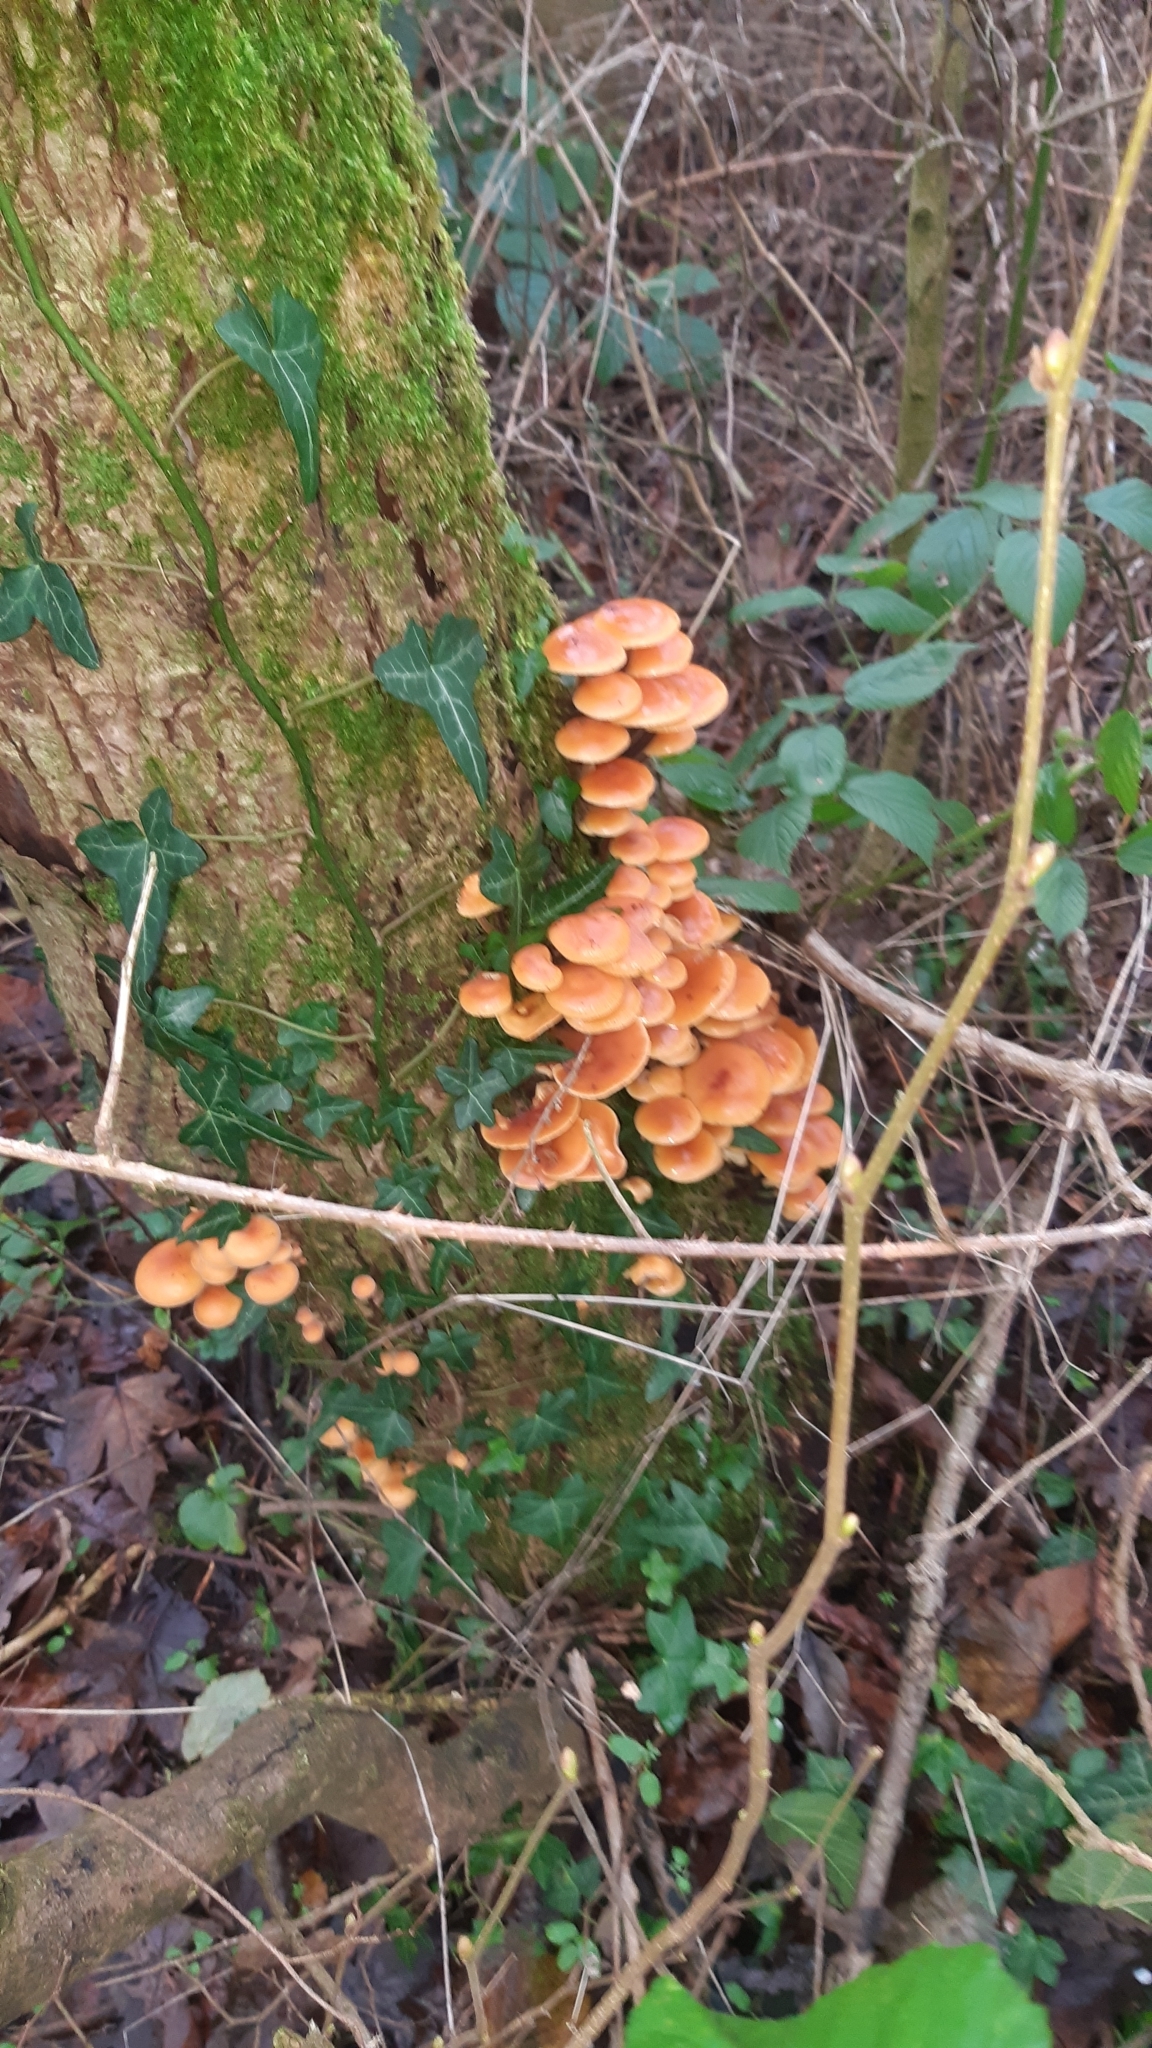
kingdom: Fungi
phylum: Basidiomycota
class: Agaricomycetes
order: Agaricales
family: Physalacriaceae
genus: Flammulina
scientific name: Flammulina
